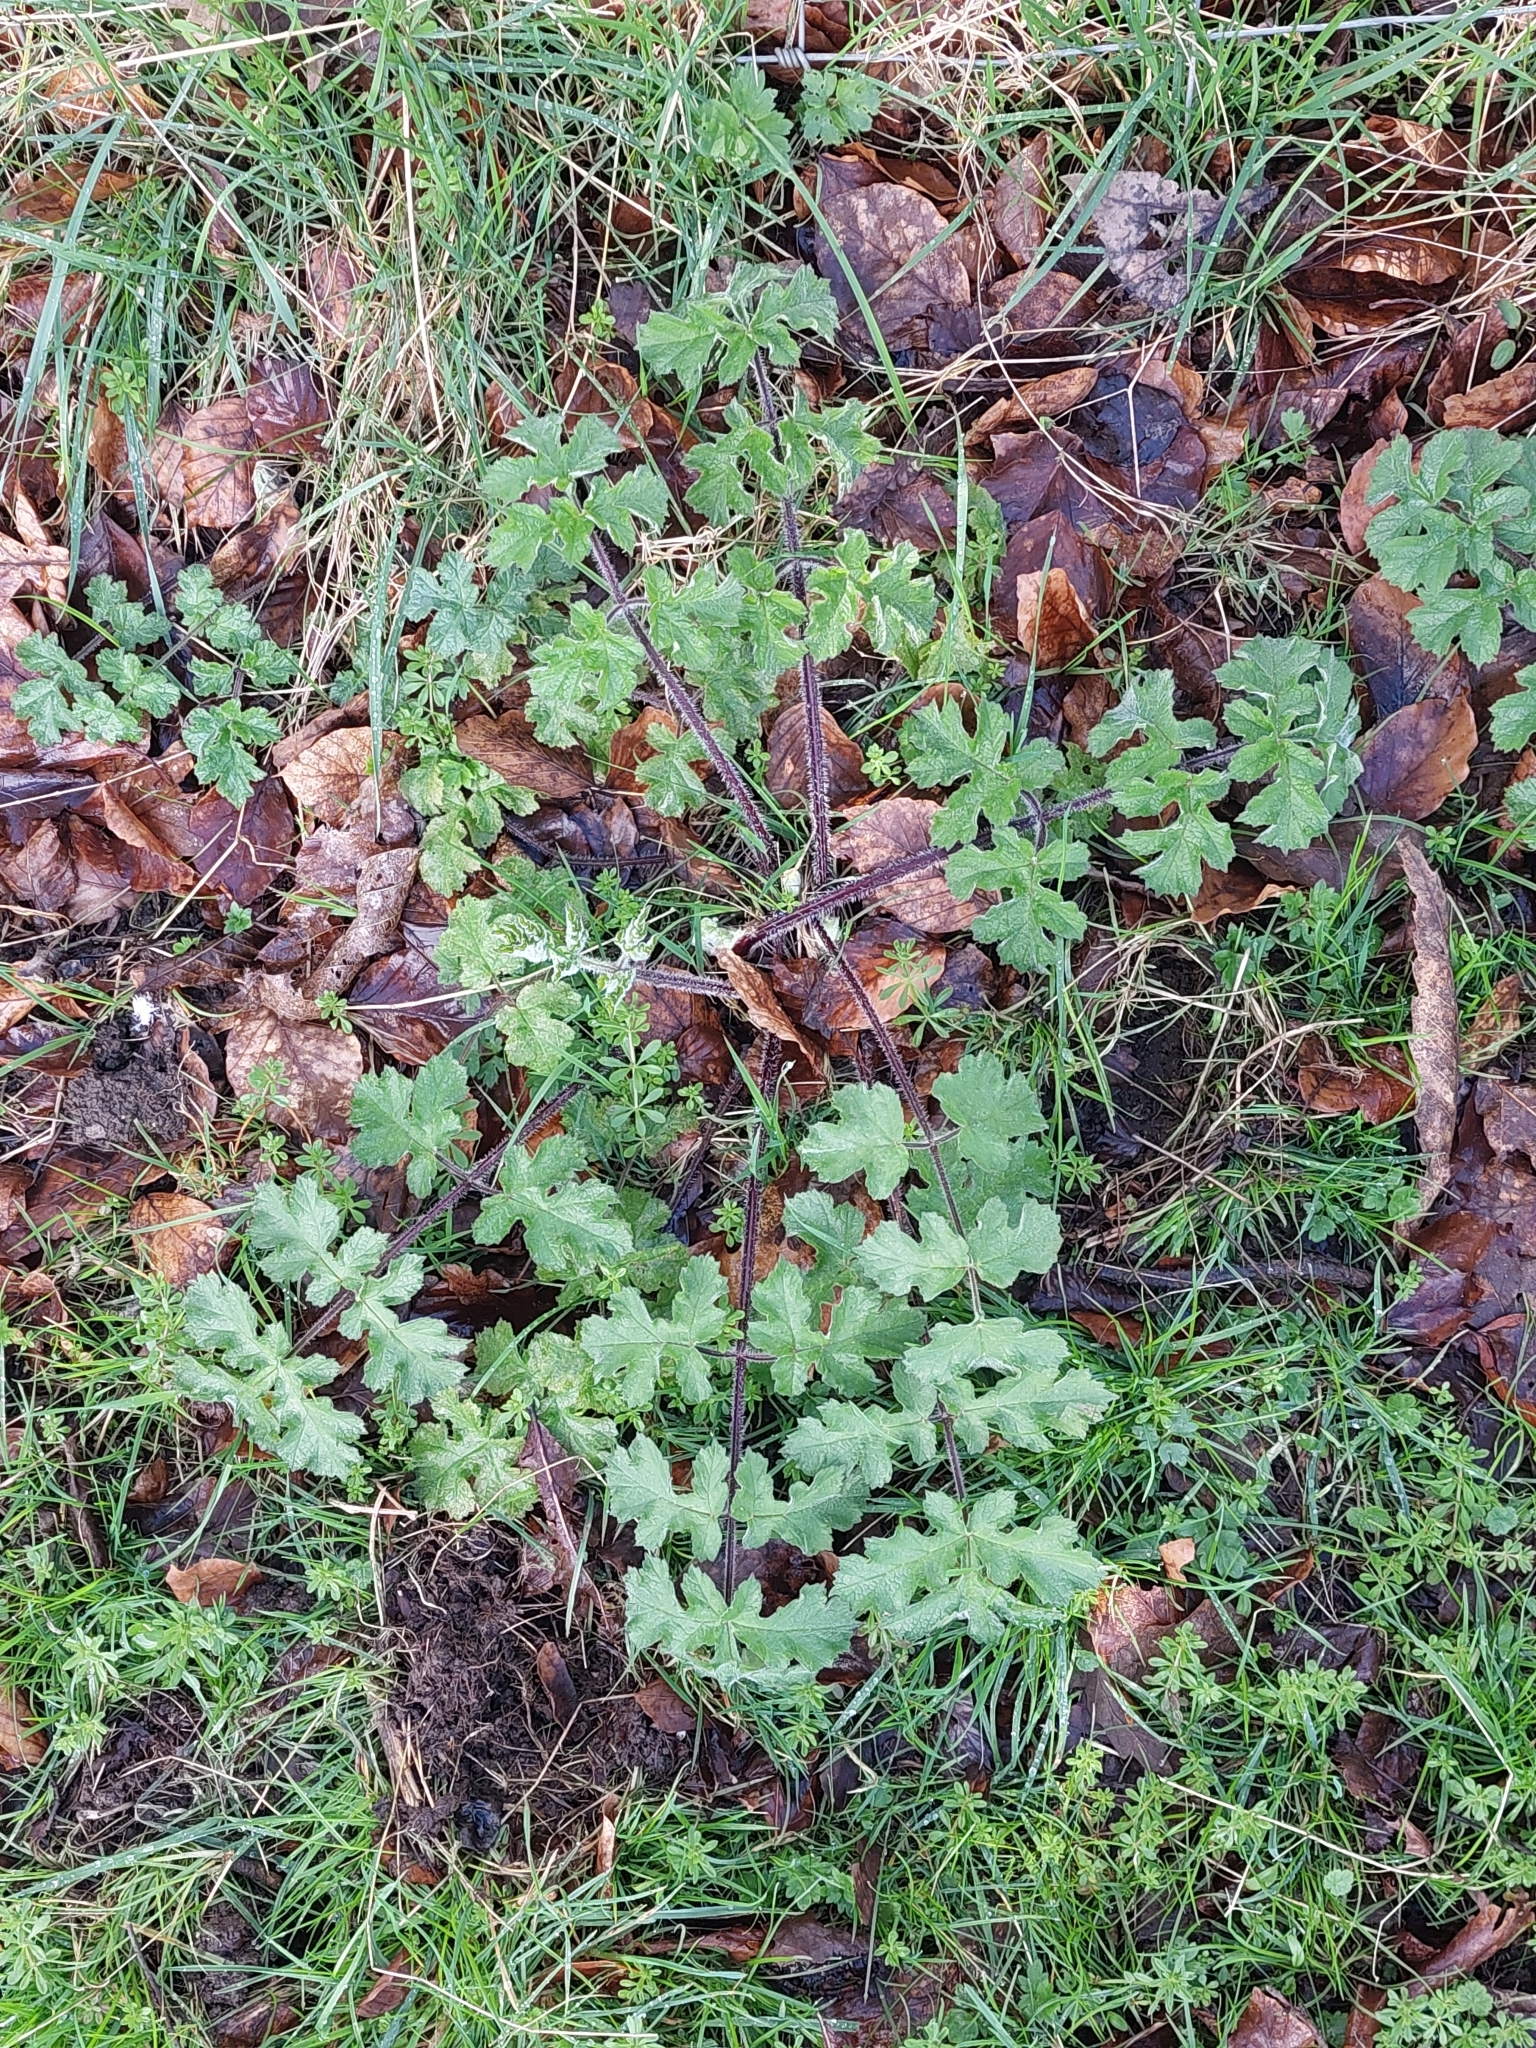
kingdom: Plantae
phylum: Tracheophyta
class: Magnoliopsida
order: Apiales
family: Apiaceae
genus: Heracleum
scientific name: Heracleum sphondylium
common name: Hogweed
